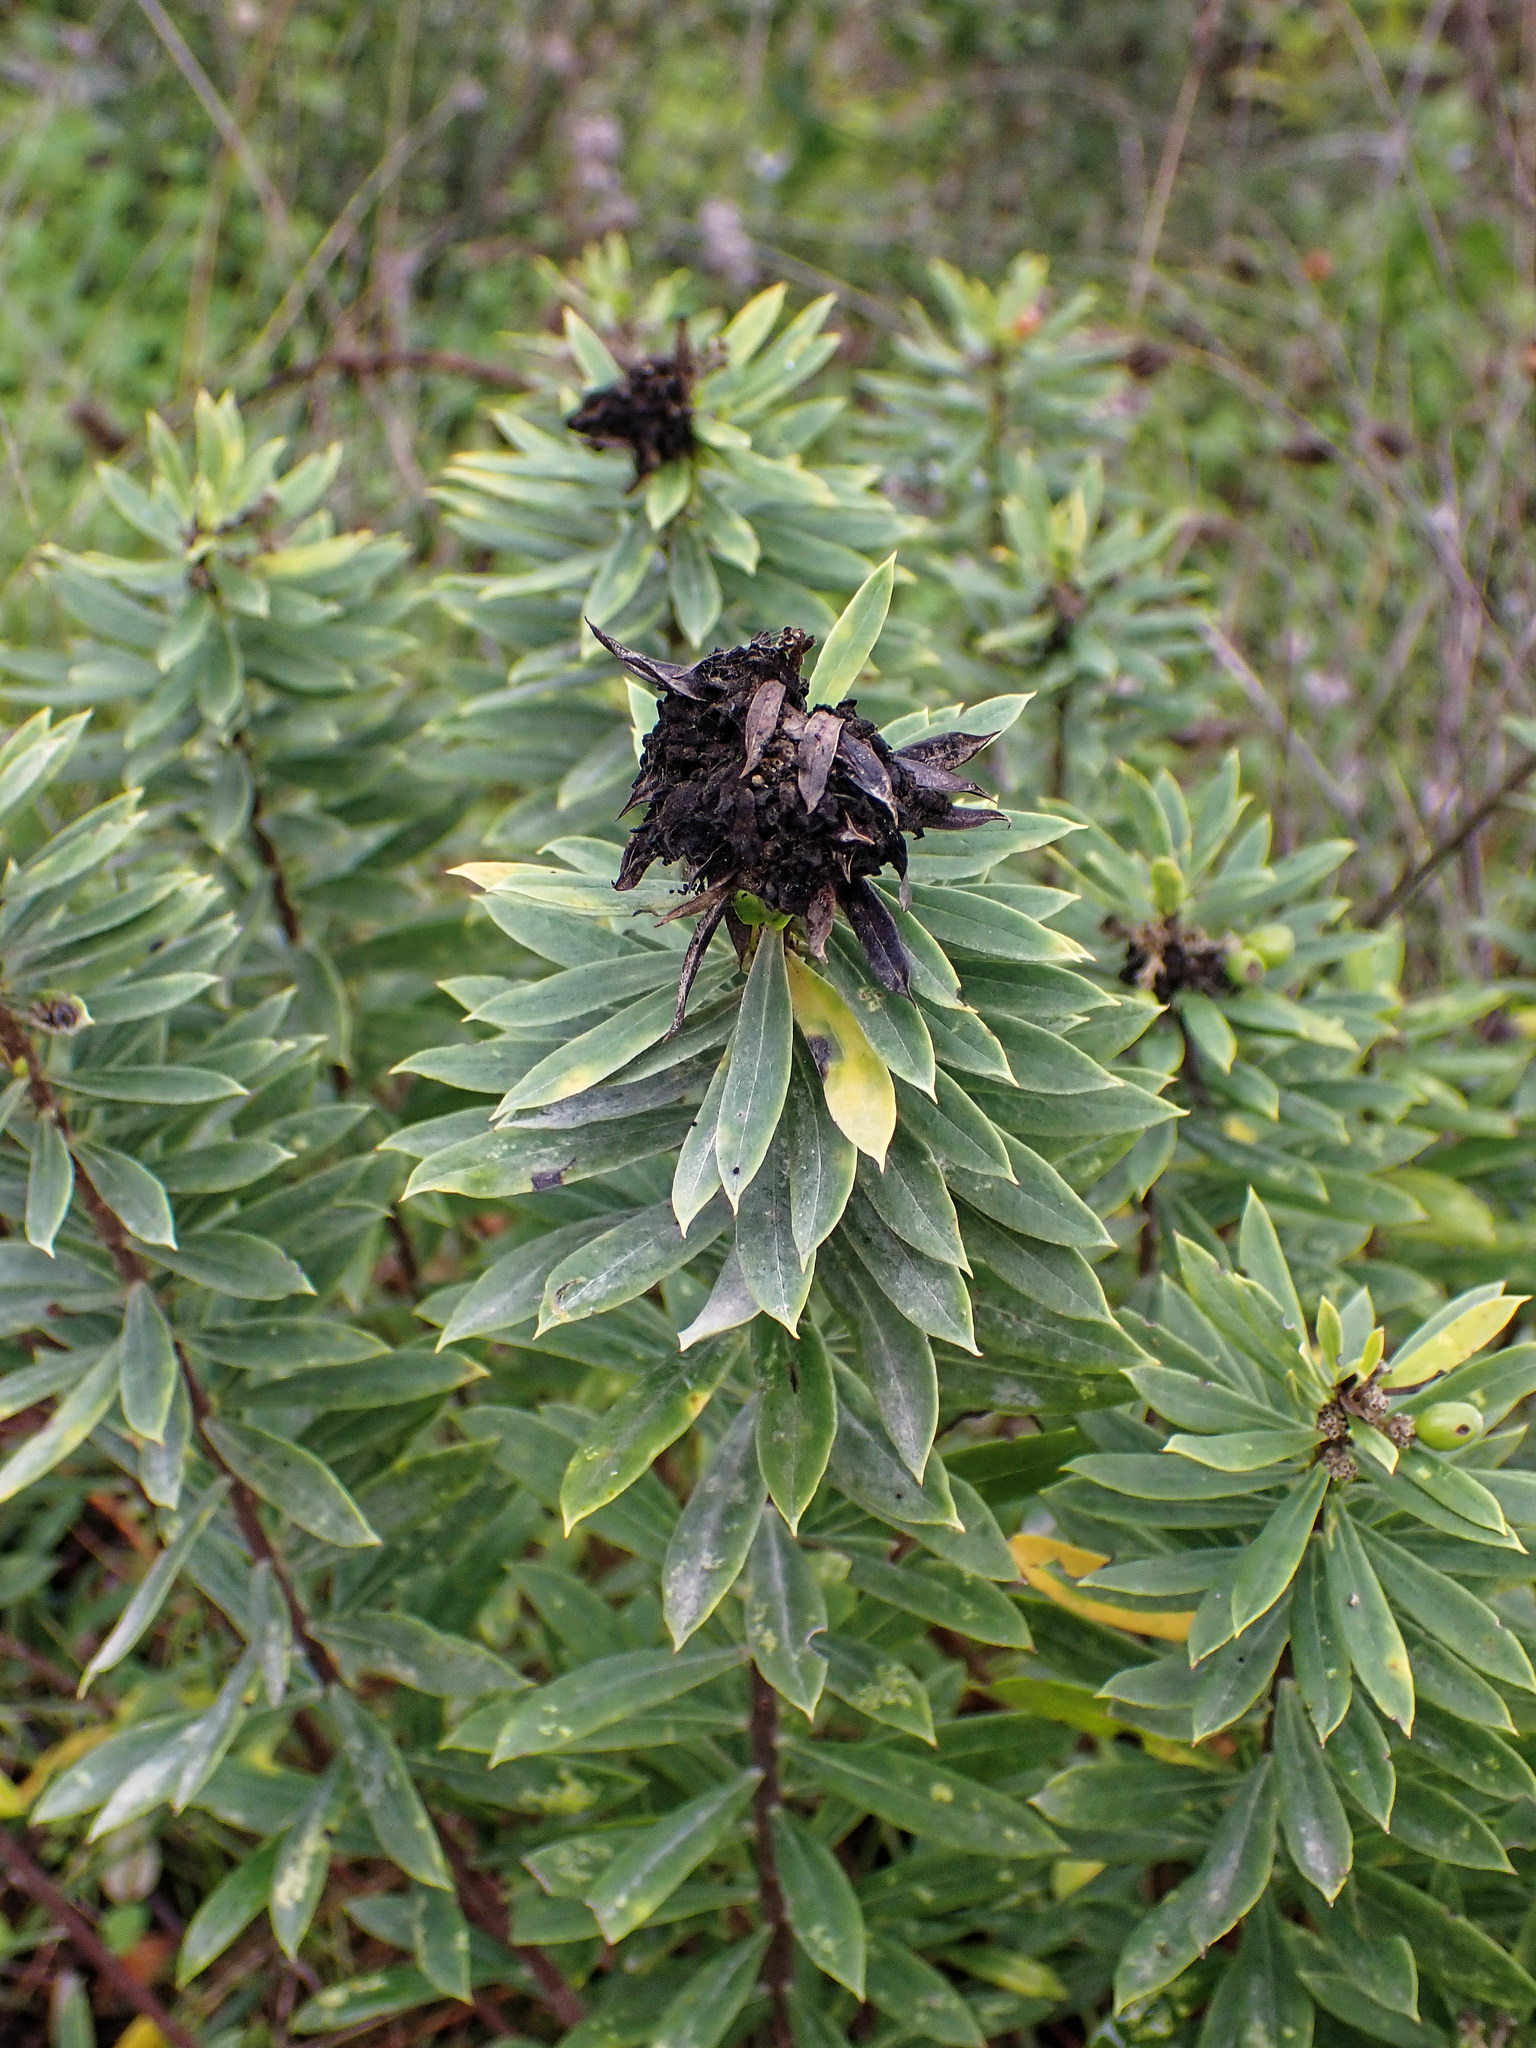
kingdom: Plantae
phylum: Tracheophyta
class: Magnoliopsida
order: Malvales
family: Thymelaeaceae
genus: Daphne
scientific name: Daphne gnidium
